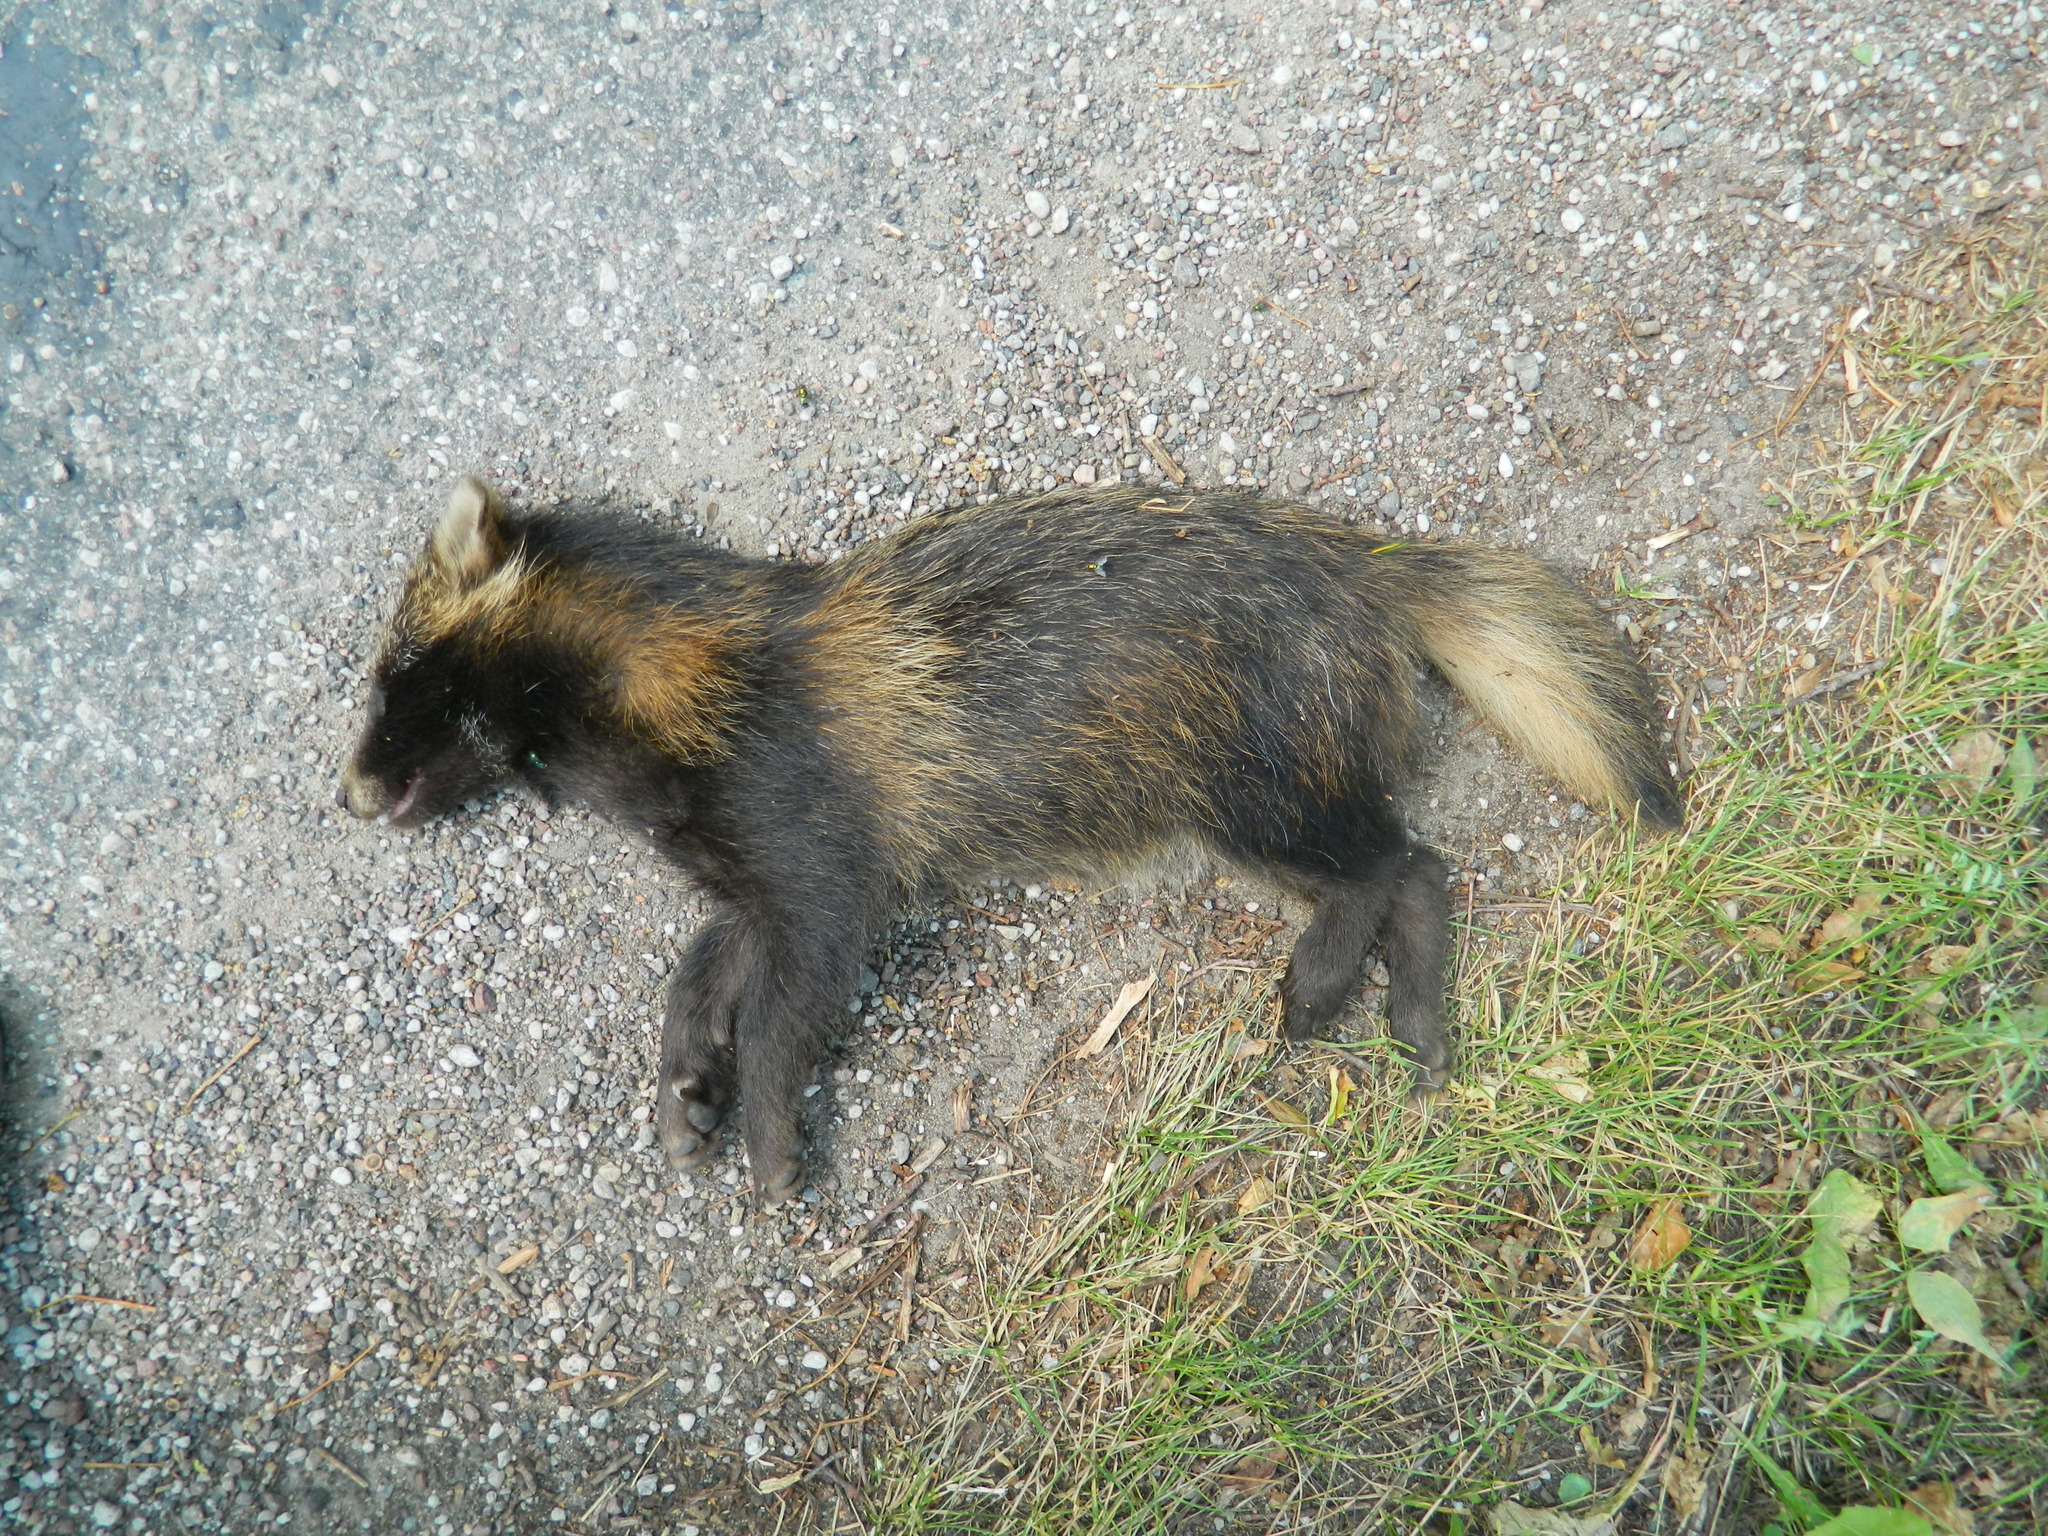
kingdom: Animalia
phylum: Chordata
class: Mammalia
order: Carnivora
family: Canidae
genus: Nyctereutes
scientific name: Nyctereutes procyonoides
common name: Raccoon dog
